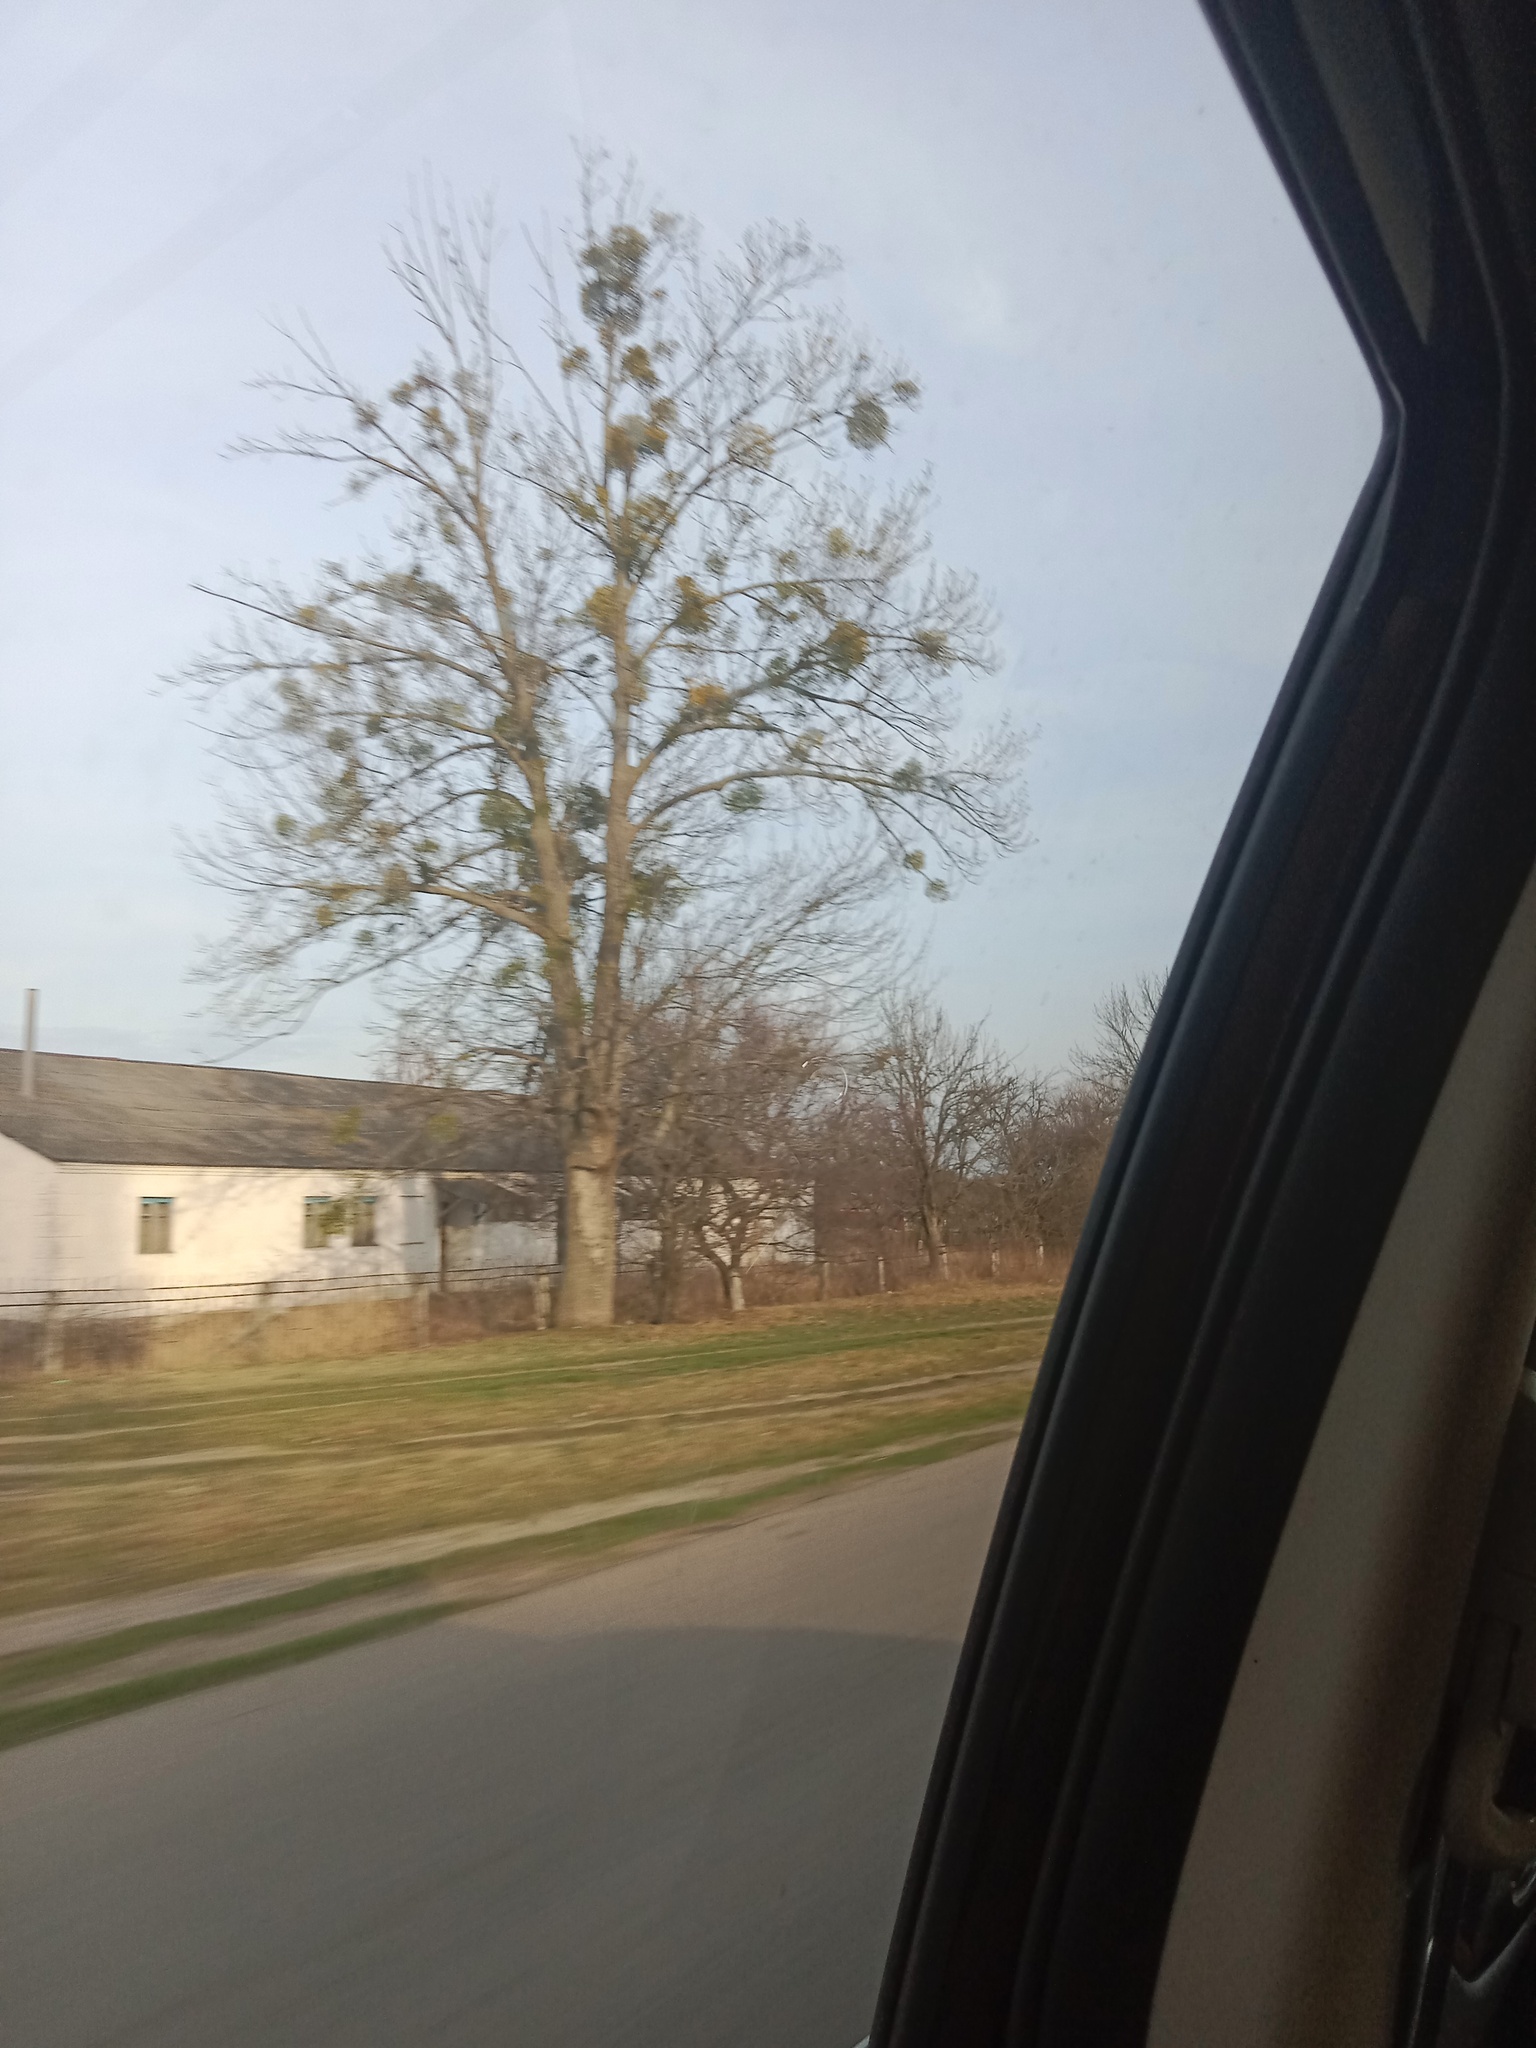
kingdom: Plantae
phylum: Tracheophyta
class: Magnoliopsida
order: Santalales
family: Viscaceae
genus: Viscum
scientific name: Viscum album
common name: Mistletoe
